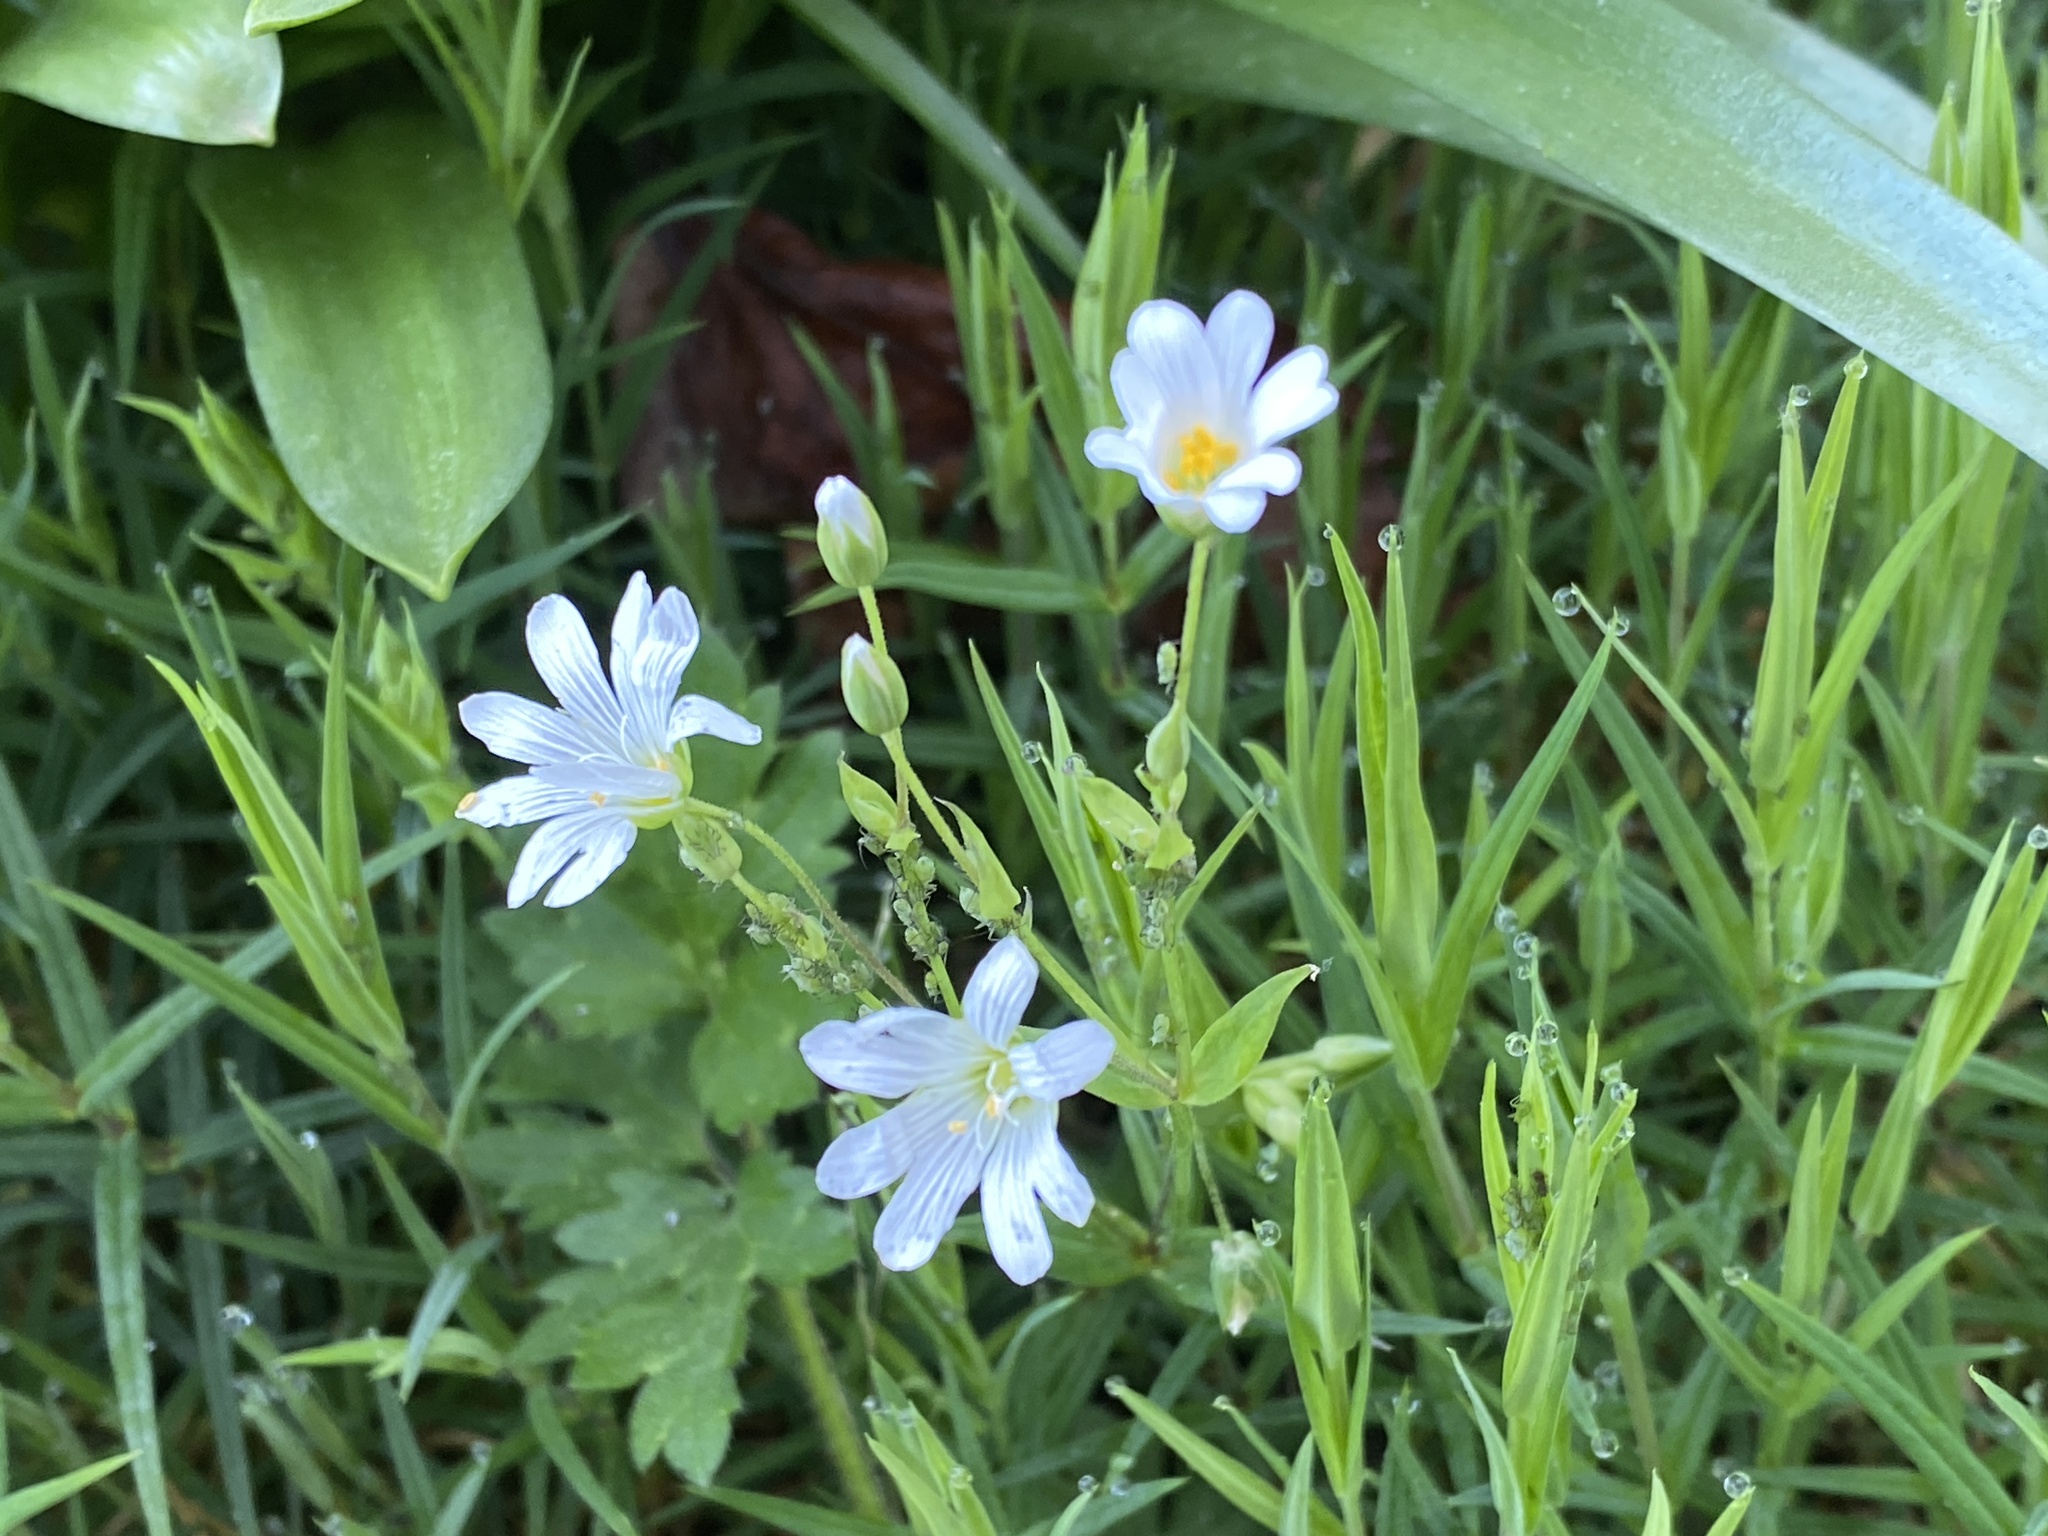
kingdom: Plantae
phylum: Tracheophyta
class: Magnoliopsida
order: Caryophyllales
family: Caryophyllaceae
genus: Rabelera
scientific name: Rabelera holostea
